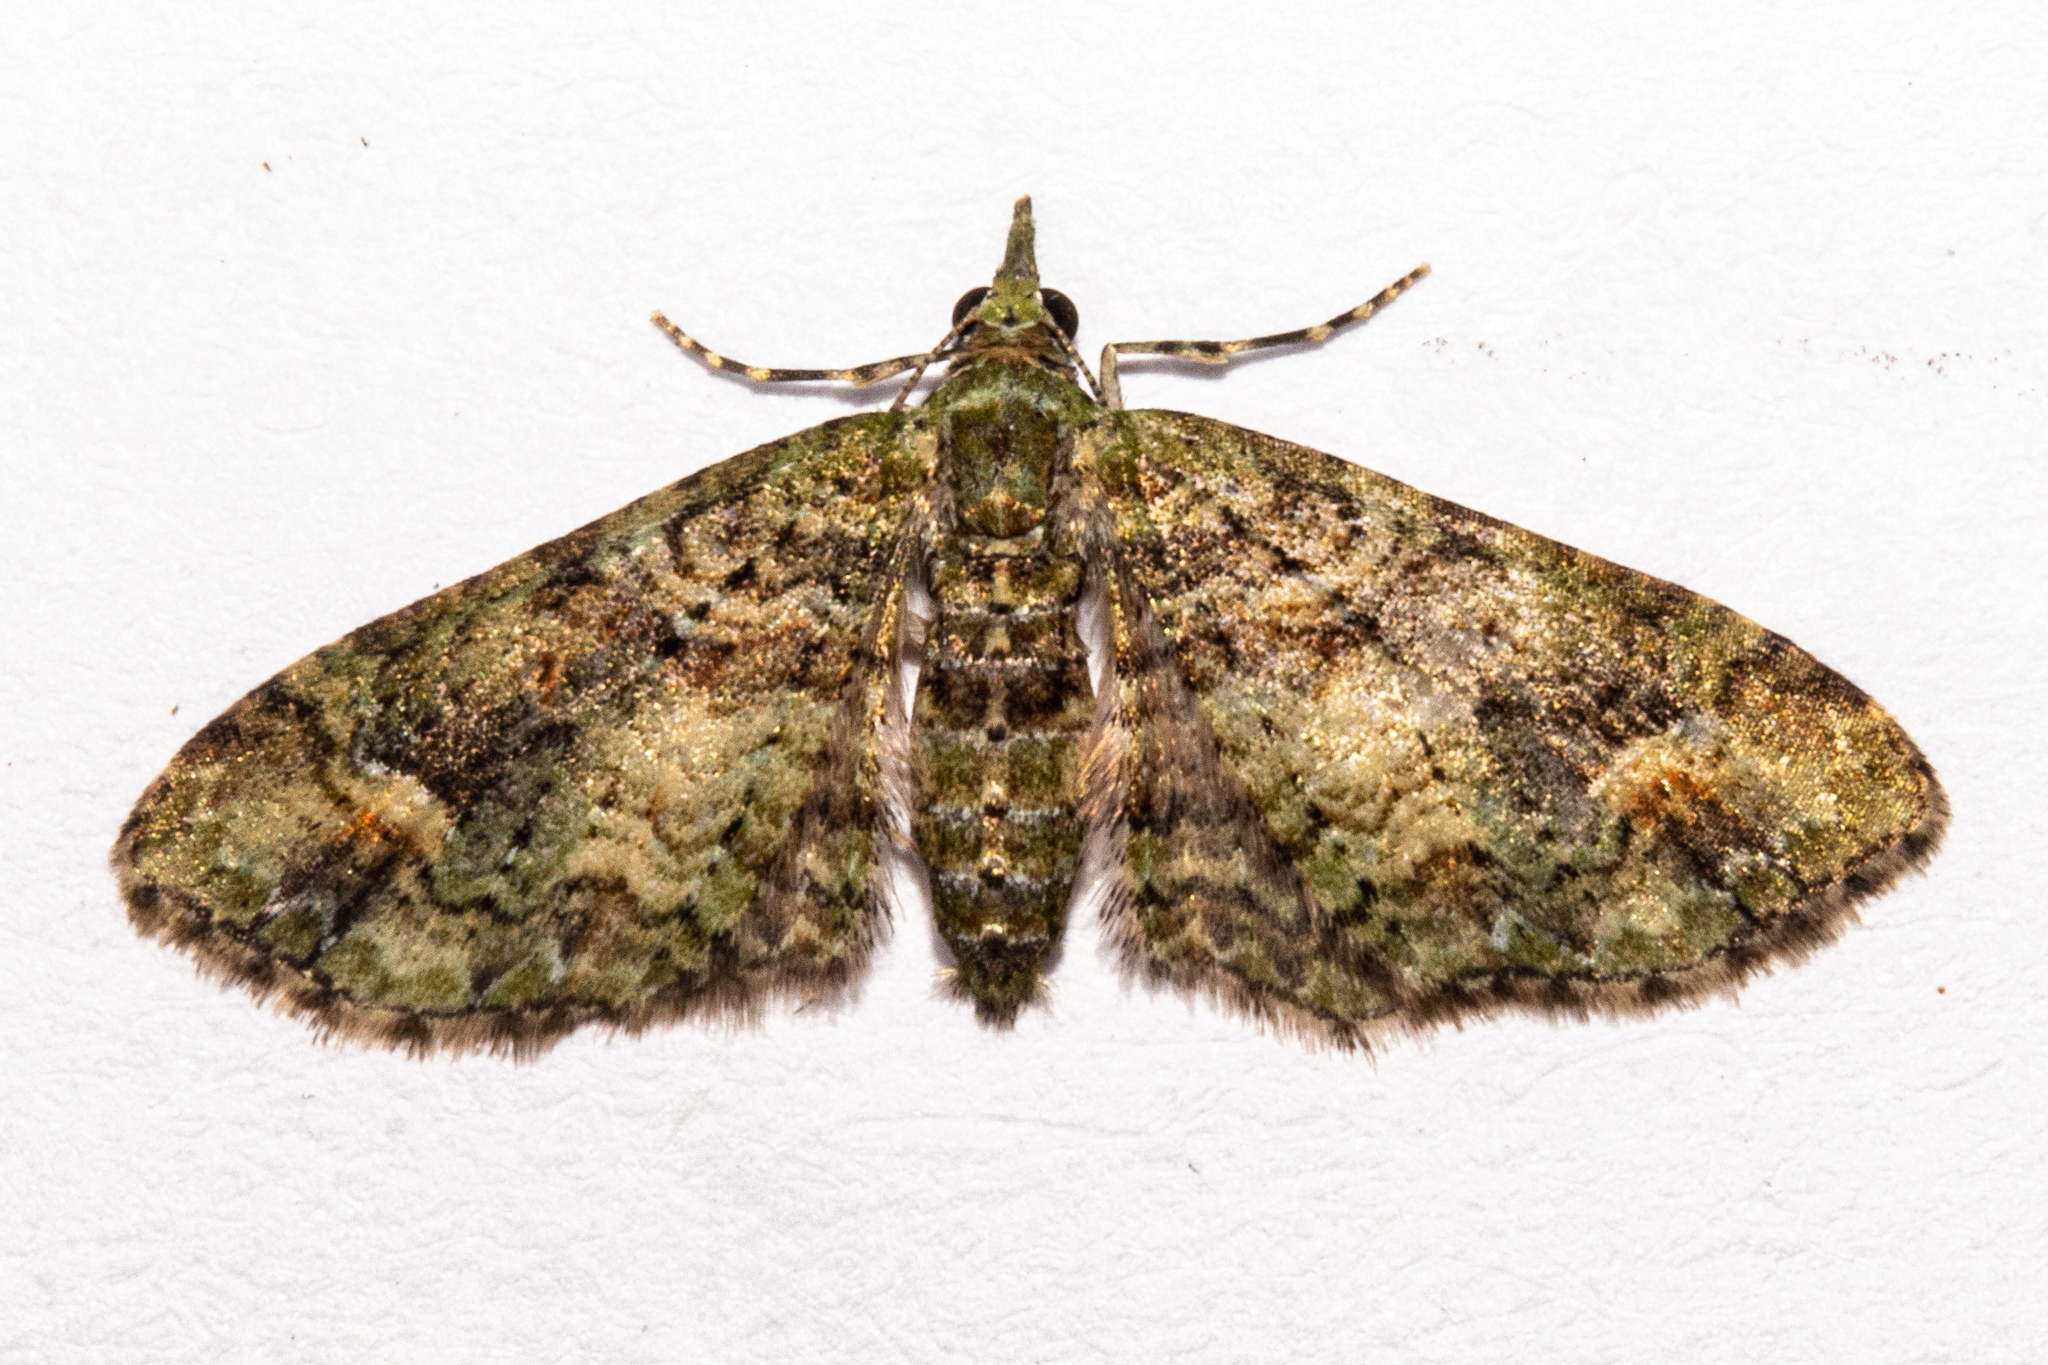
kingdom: Animalia
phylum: Arthropoda
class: Insecta
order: Lepidoptera
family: Geometridae
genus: Idaea
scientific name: Idaea mutanda
